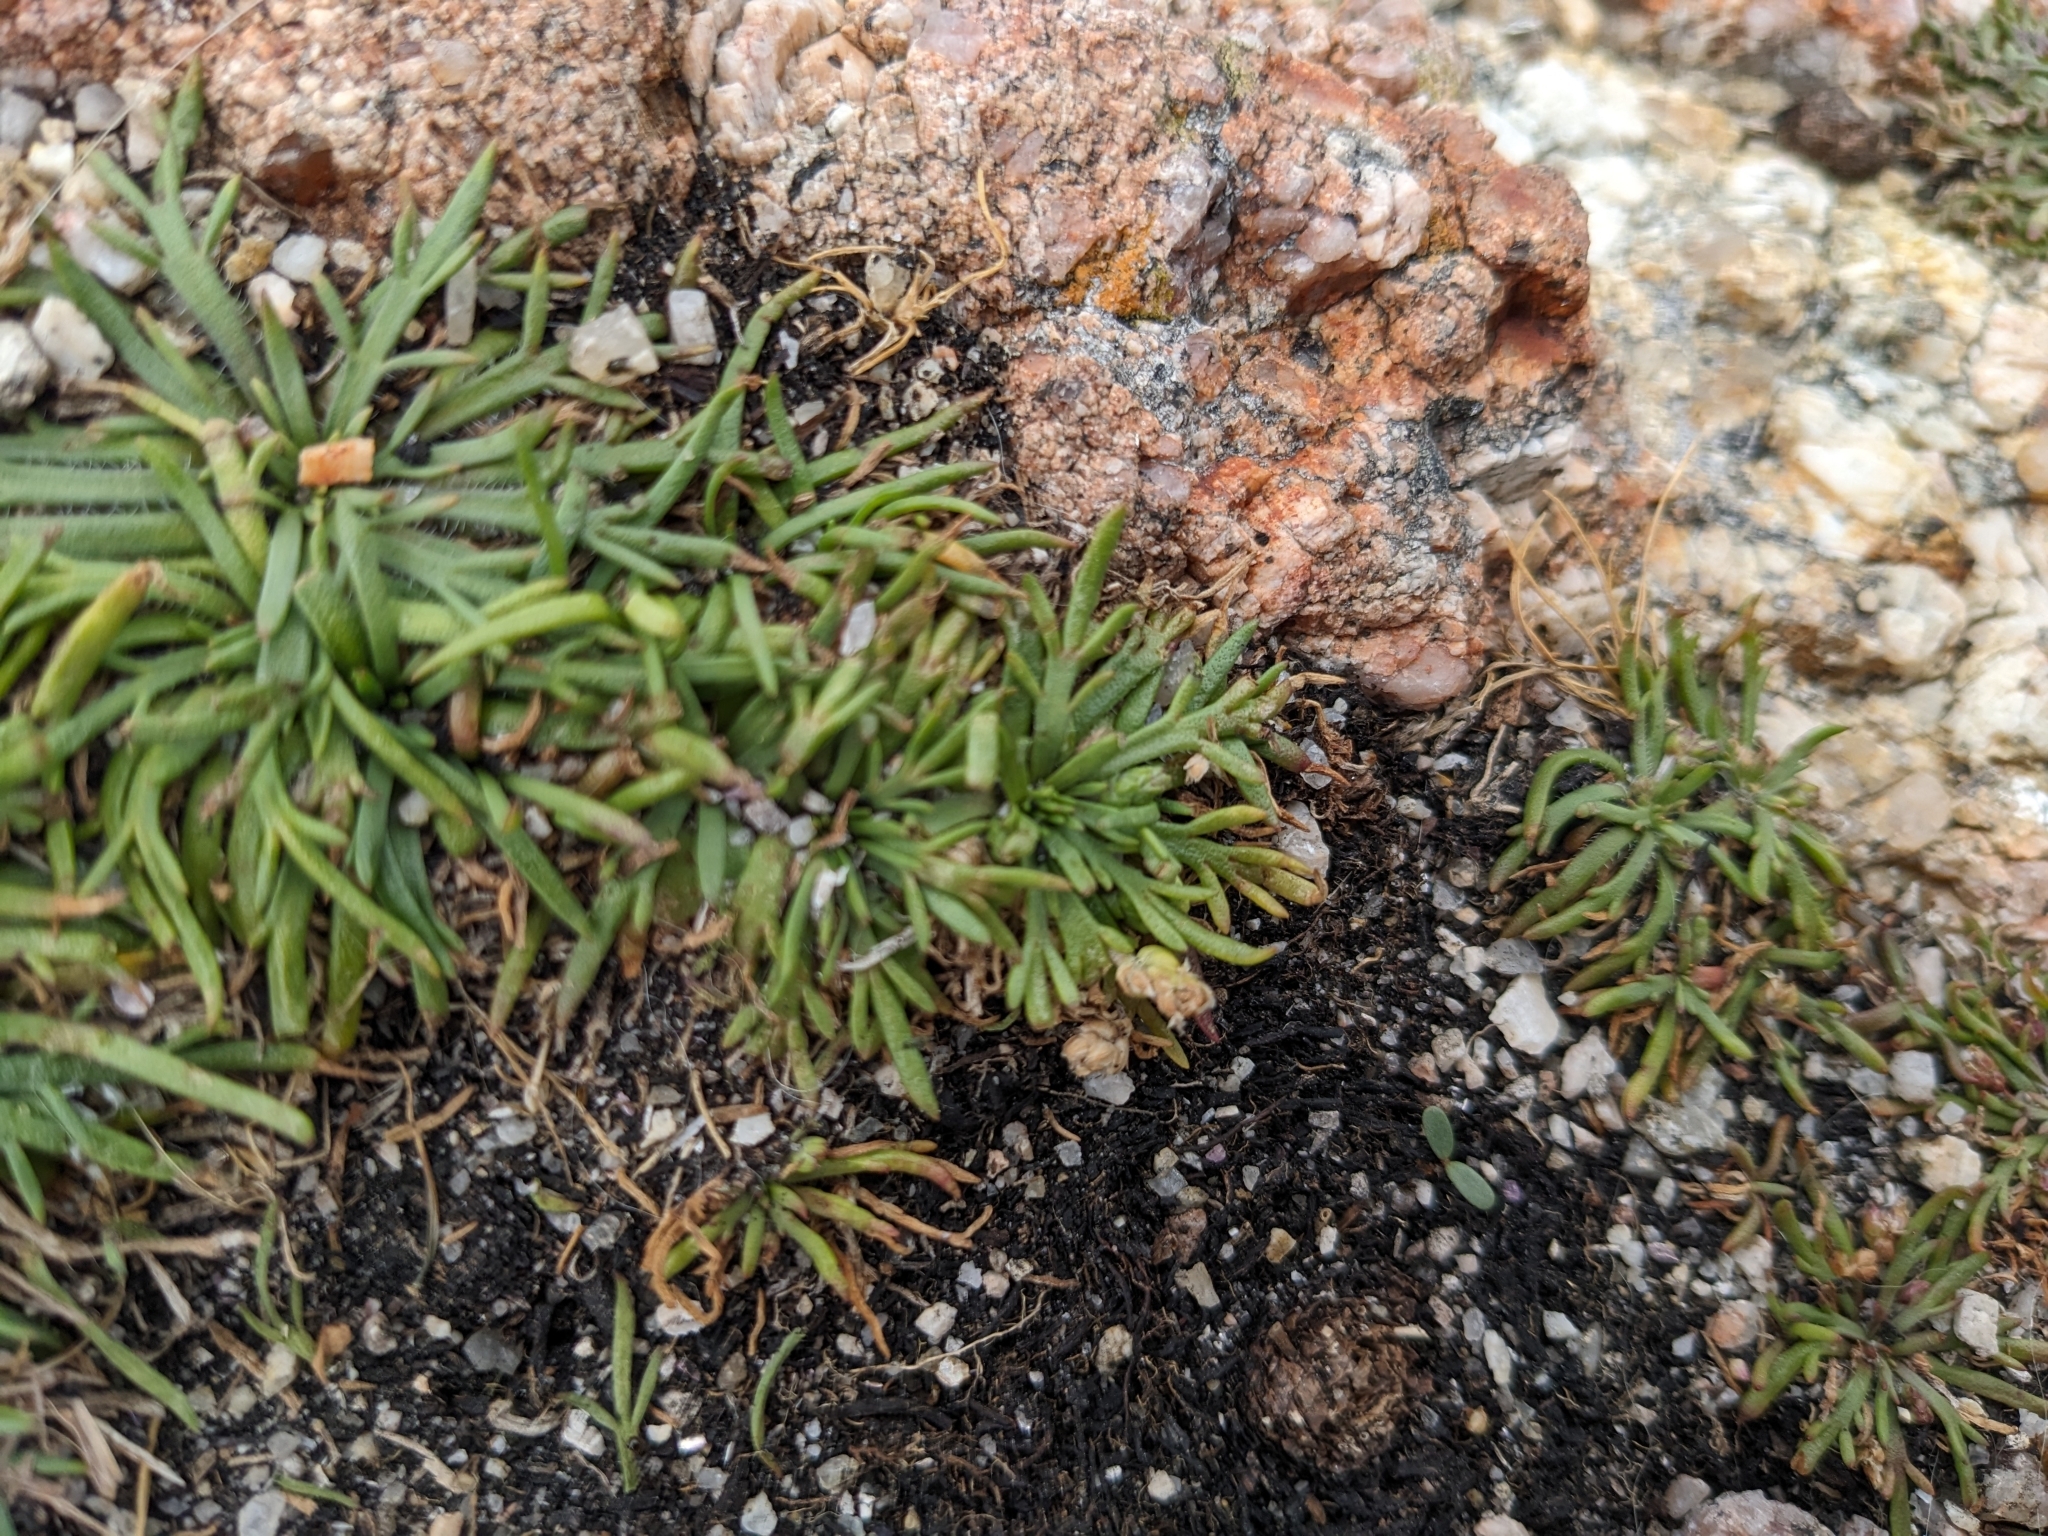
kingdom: Plantae
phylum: Tracheophyta
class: Magnoliopsida
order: Lamiales
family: Plantaginaceae
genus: Plantago
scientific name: Plantago coronopus
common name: Buck's-horn plantain
